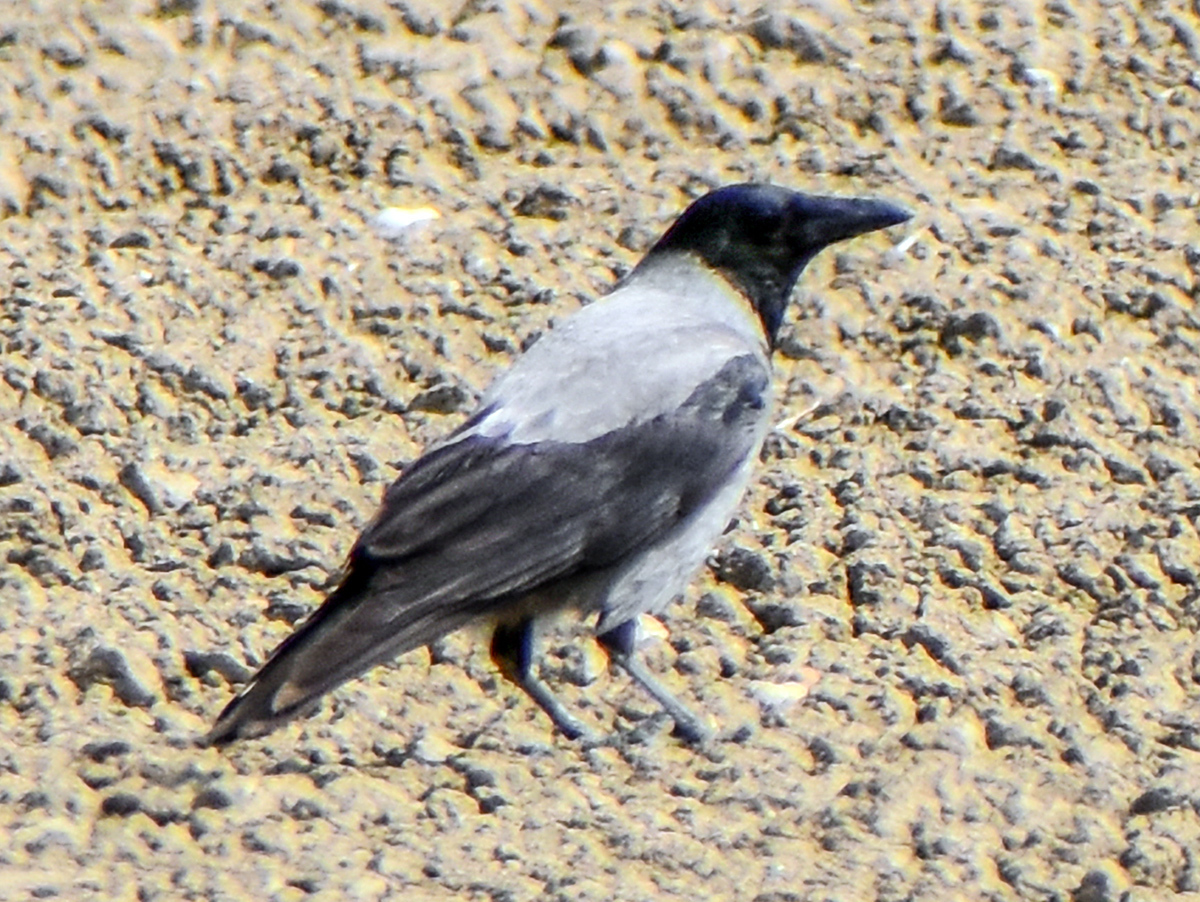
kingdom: Animalia
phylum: Chordata
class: Aves
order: Passeriformes
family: Corvidae
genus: Corvus
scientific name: Corvus cornix
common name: Hooded crow
